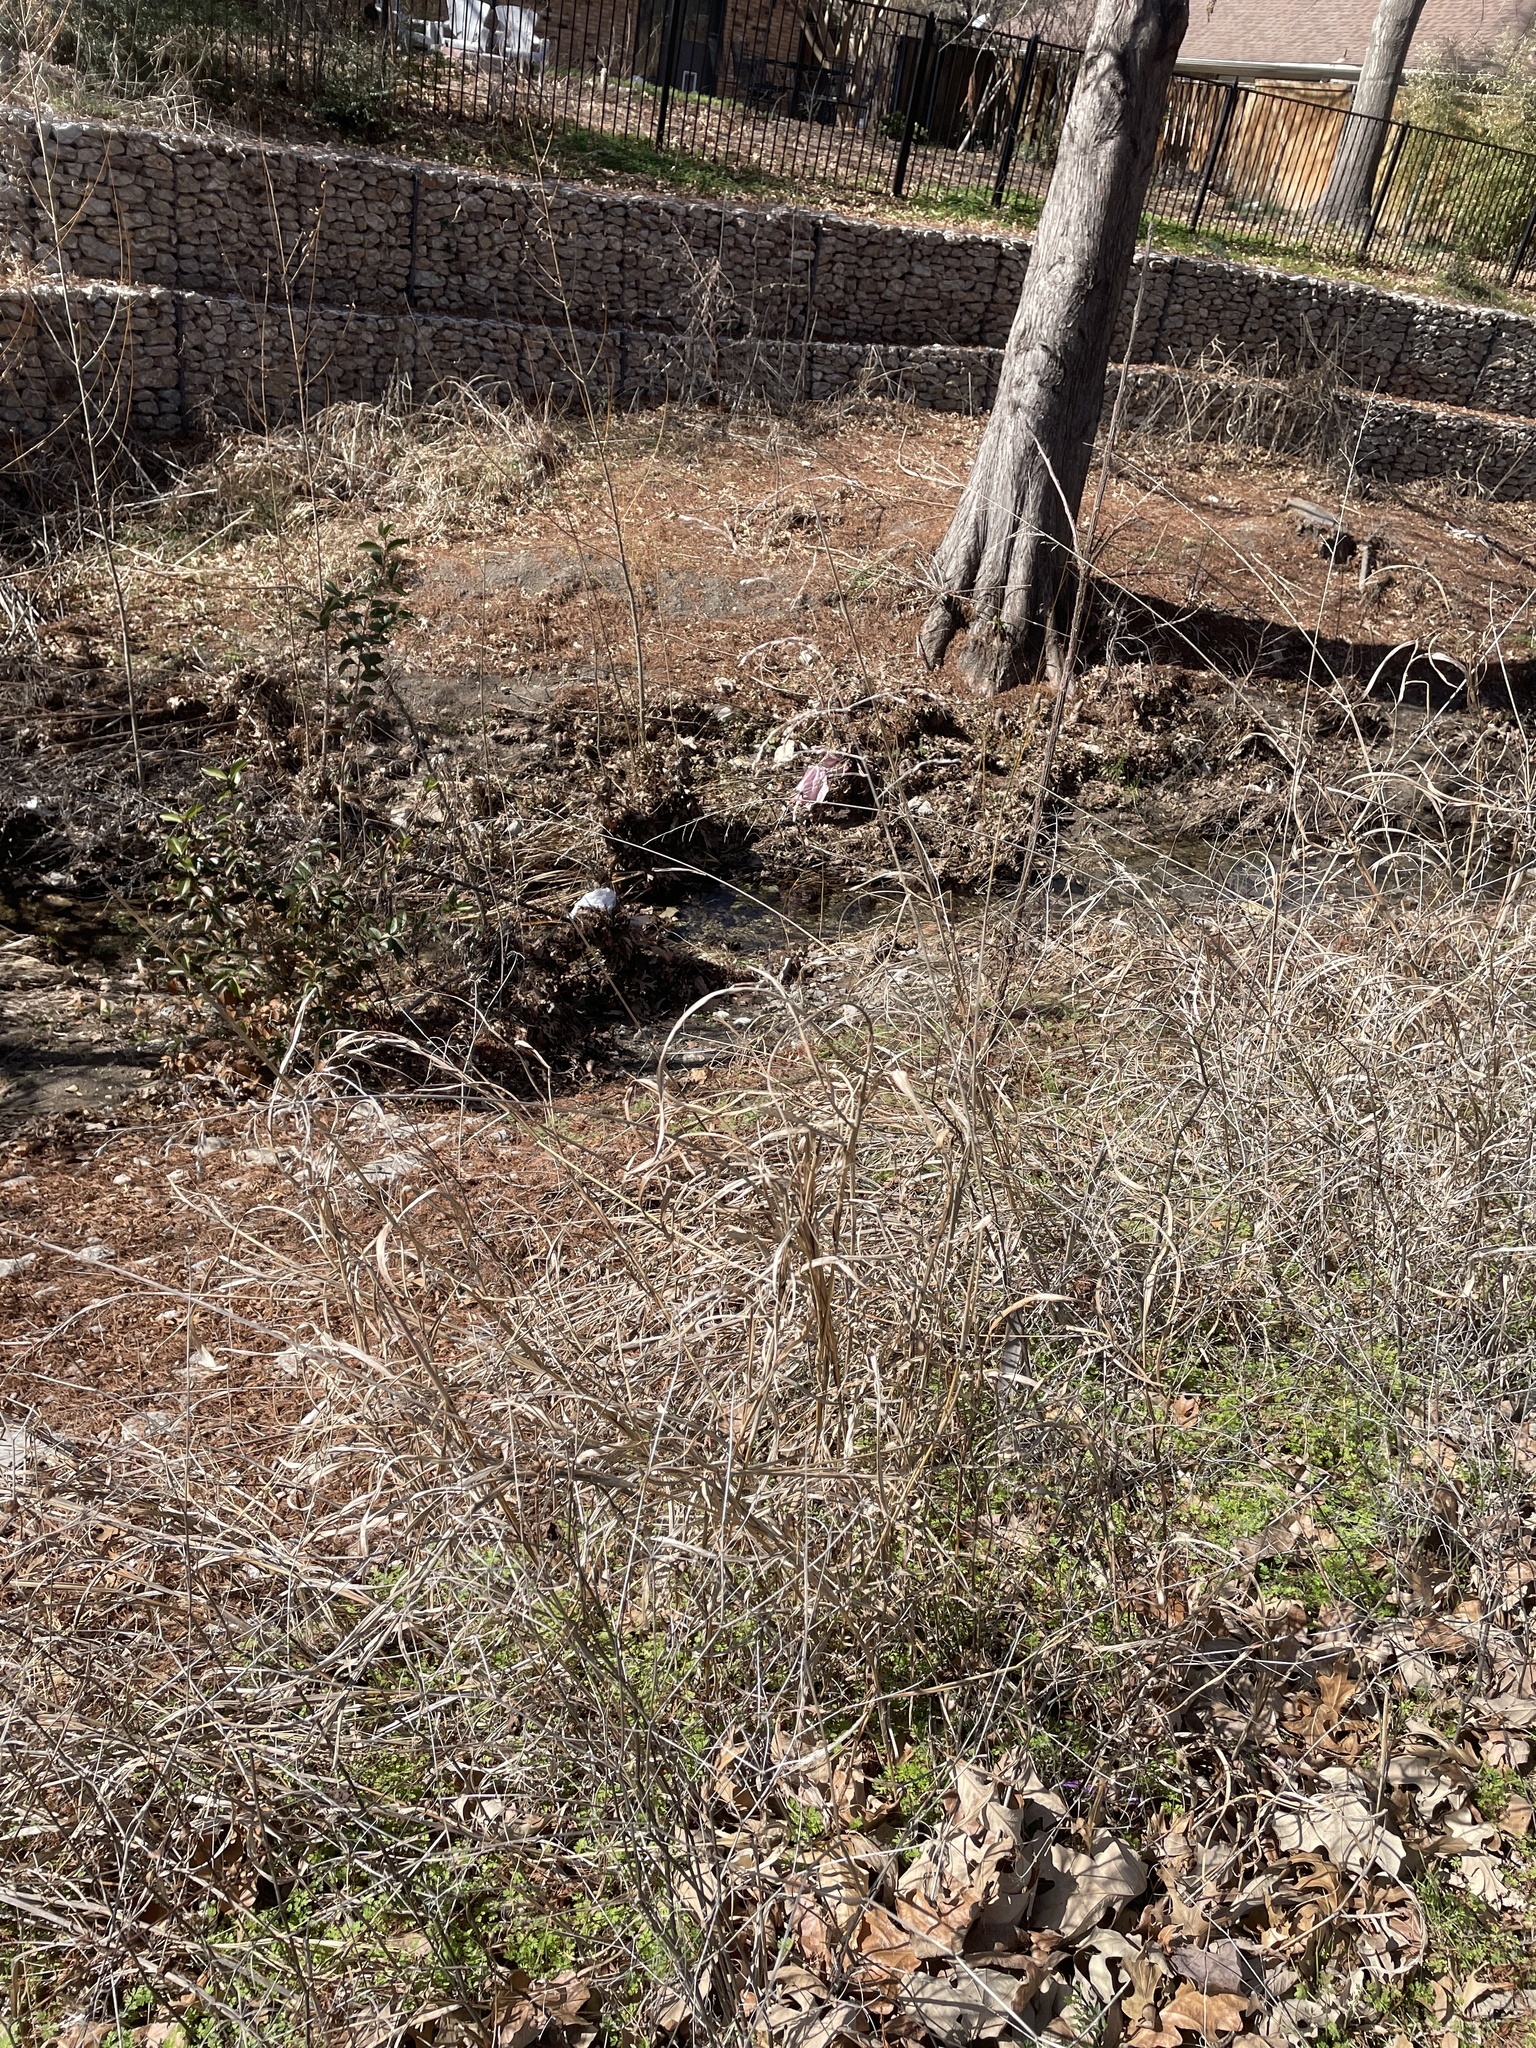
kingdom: Plantae
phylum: Tracheophyta
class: Liliopsida
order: Poales
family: Poaceae
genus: Sorghum
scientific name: Sorghum halepense
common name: Johnson-grass
